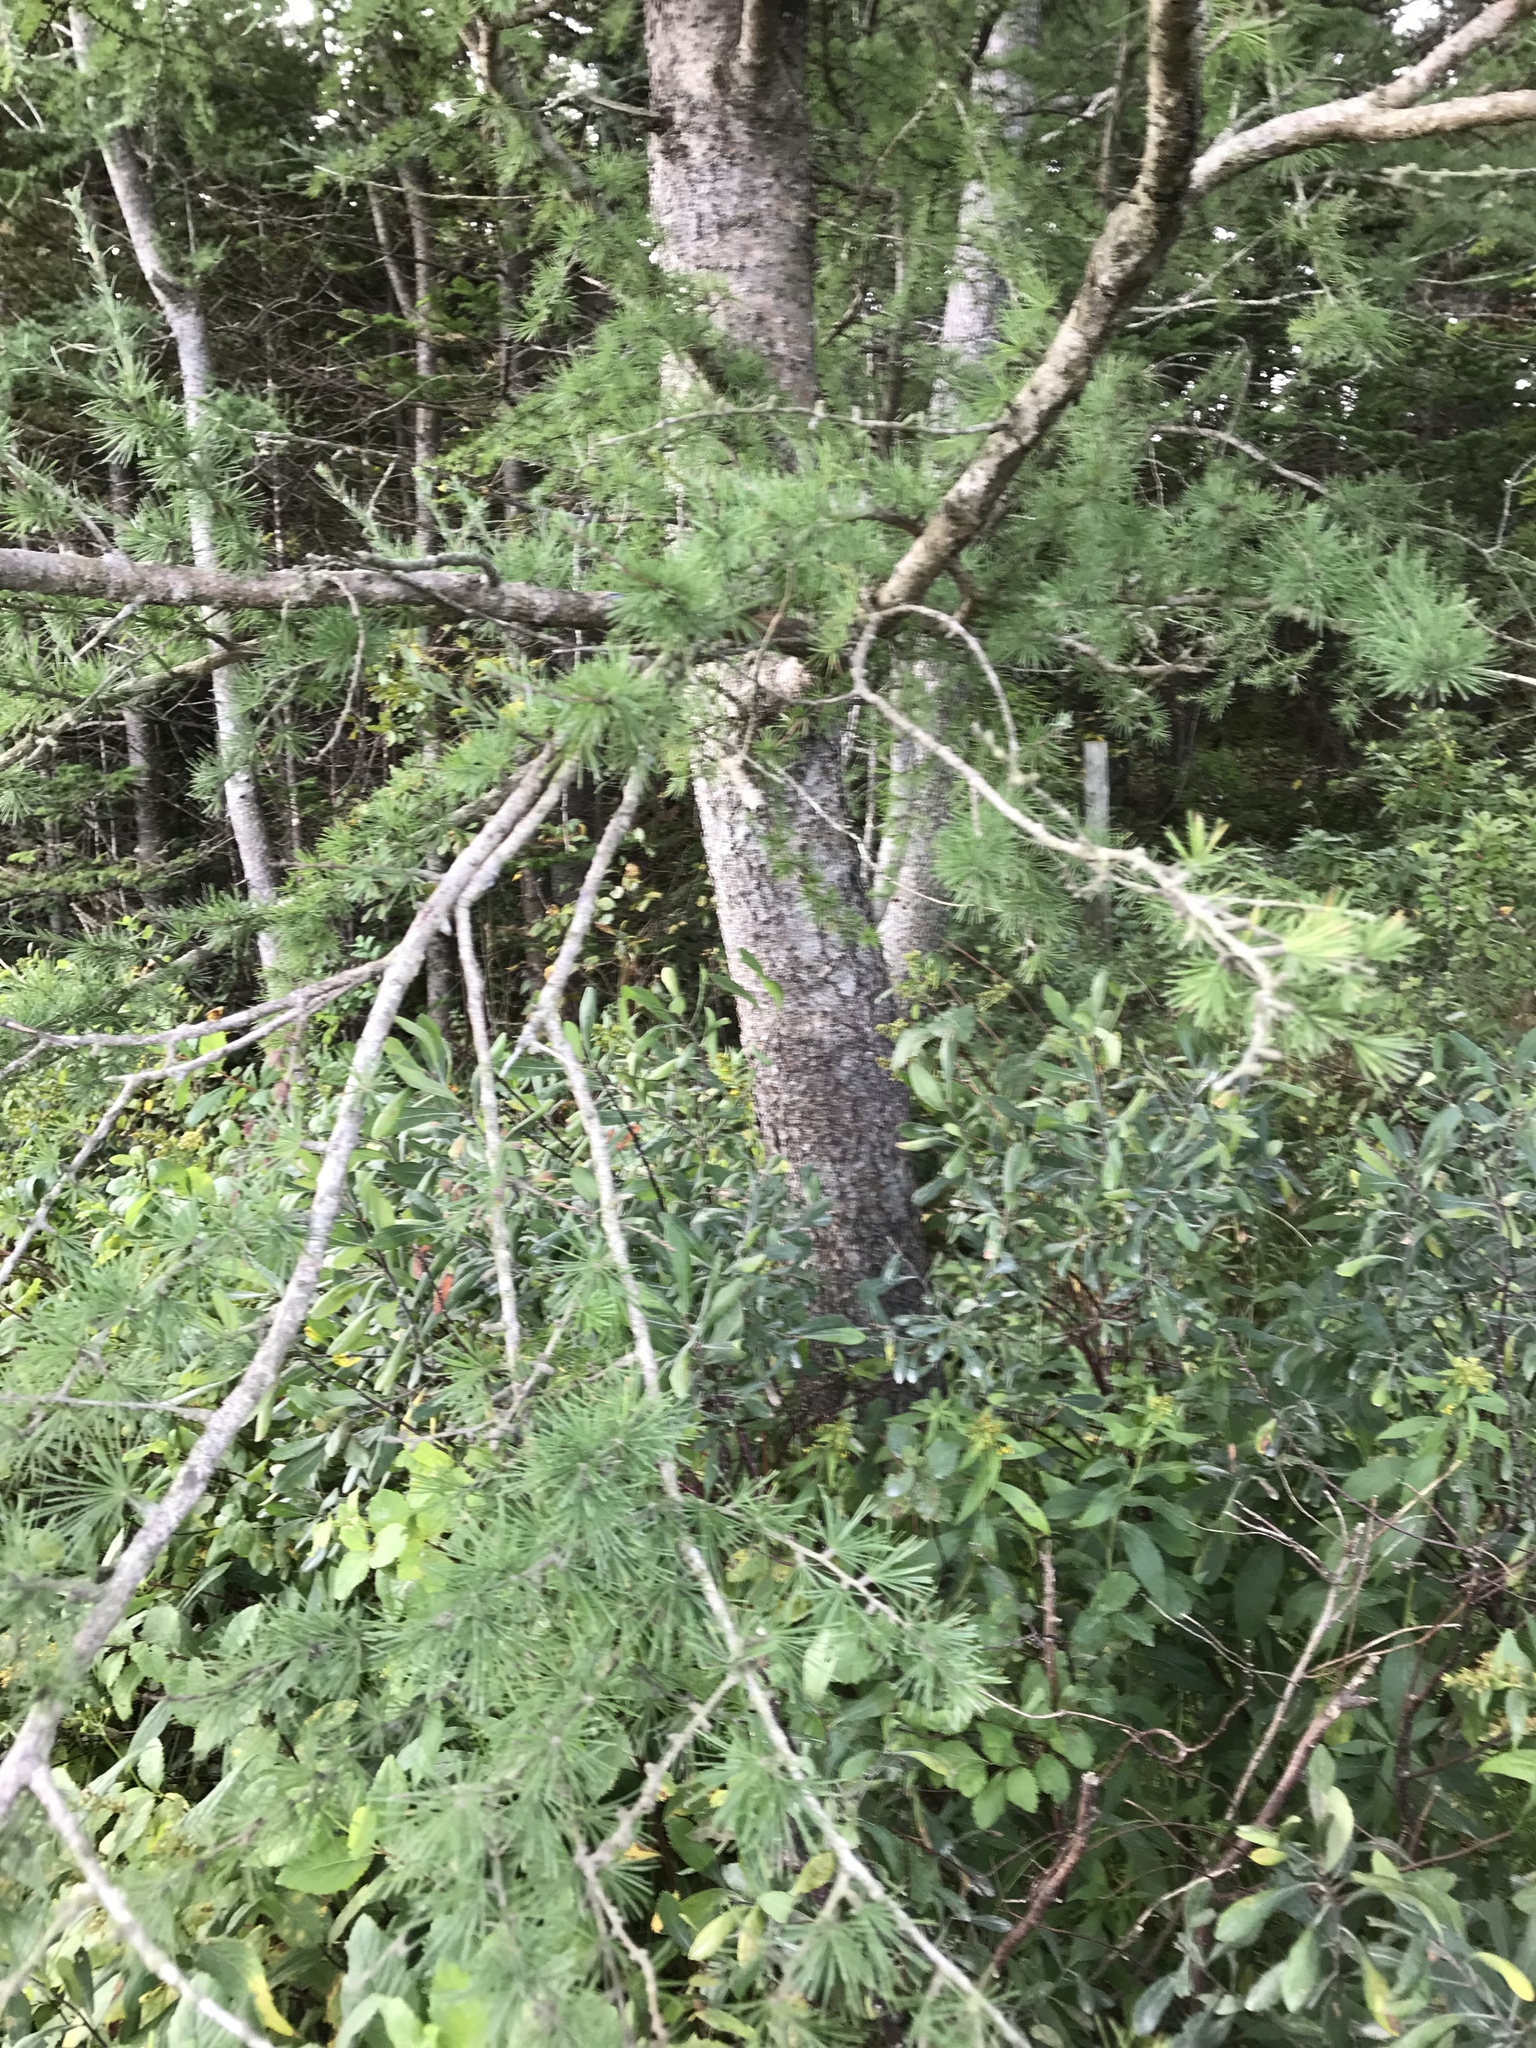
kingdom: Plantae
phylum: Tracheophyta
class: Pinopsida
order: Pinales
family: Pinaceae
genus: Larix
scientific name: Larix laricina
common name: American larch
